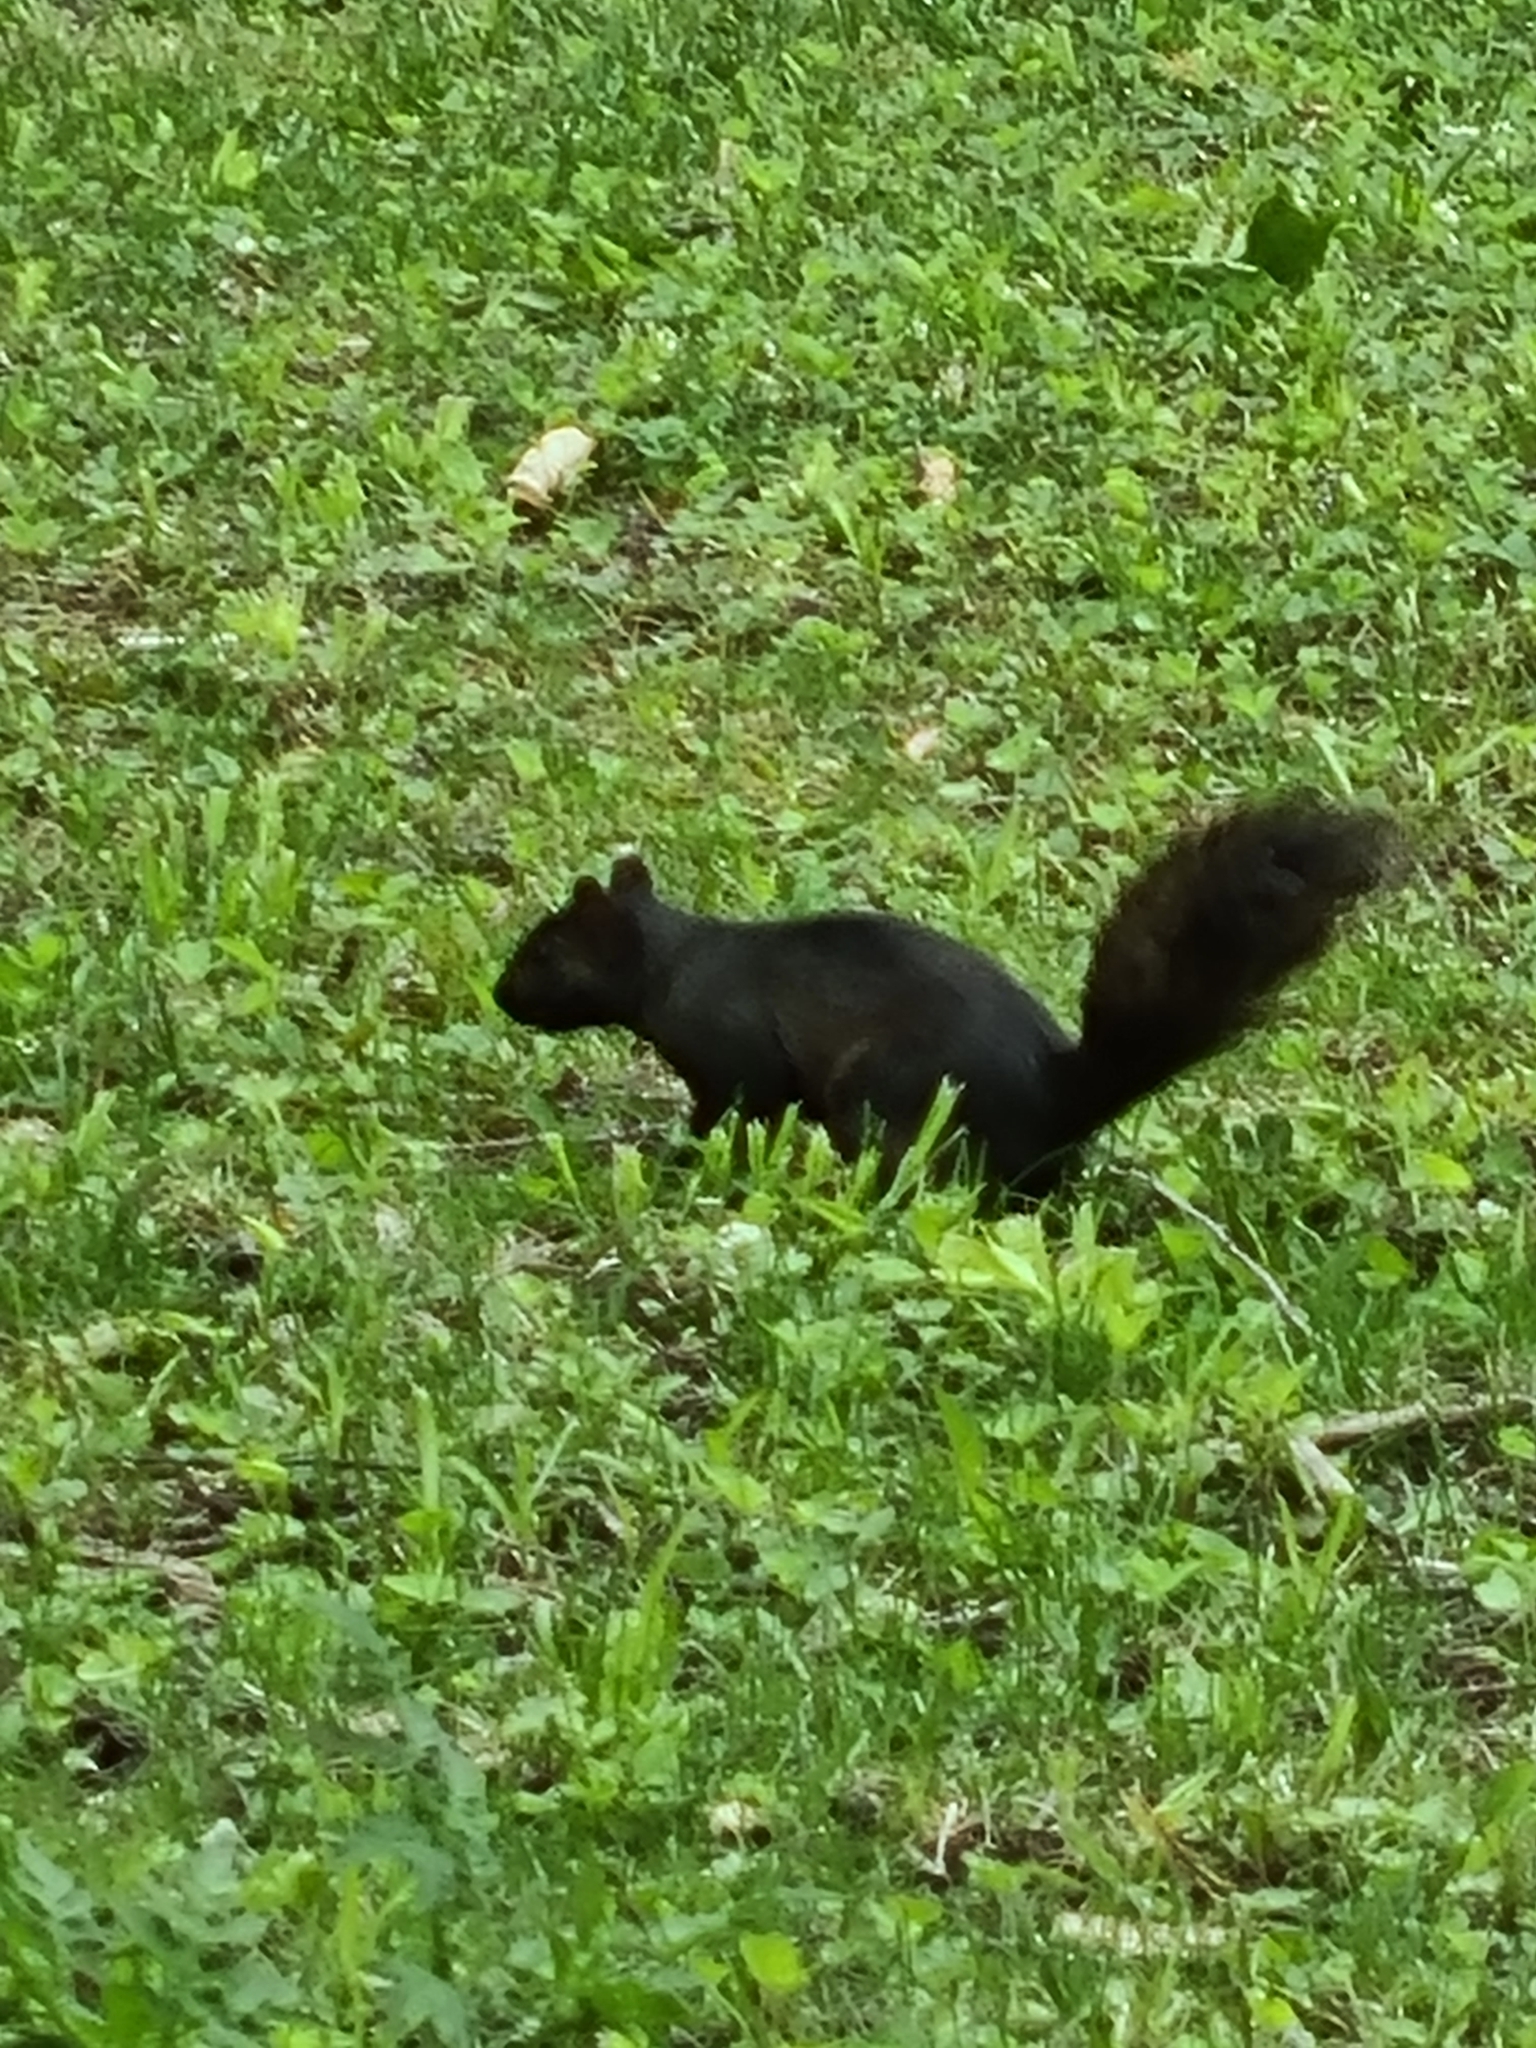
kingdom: Animalia
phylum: Chordata
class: Mammalia
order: Rodentia
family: Sciuridae
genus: Sciurus
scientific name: Sciurus carolinensis
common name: Eastern gray squirrel
